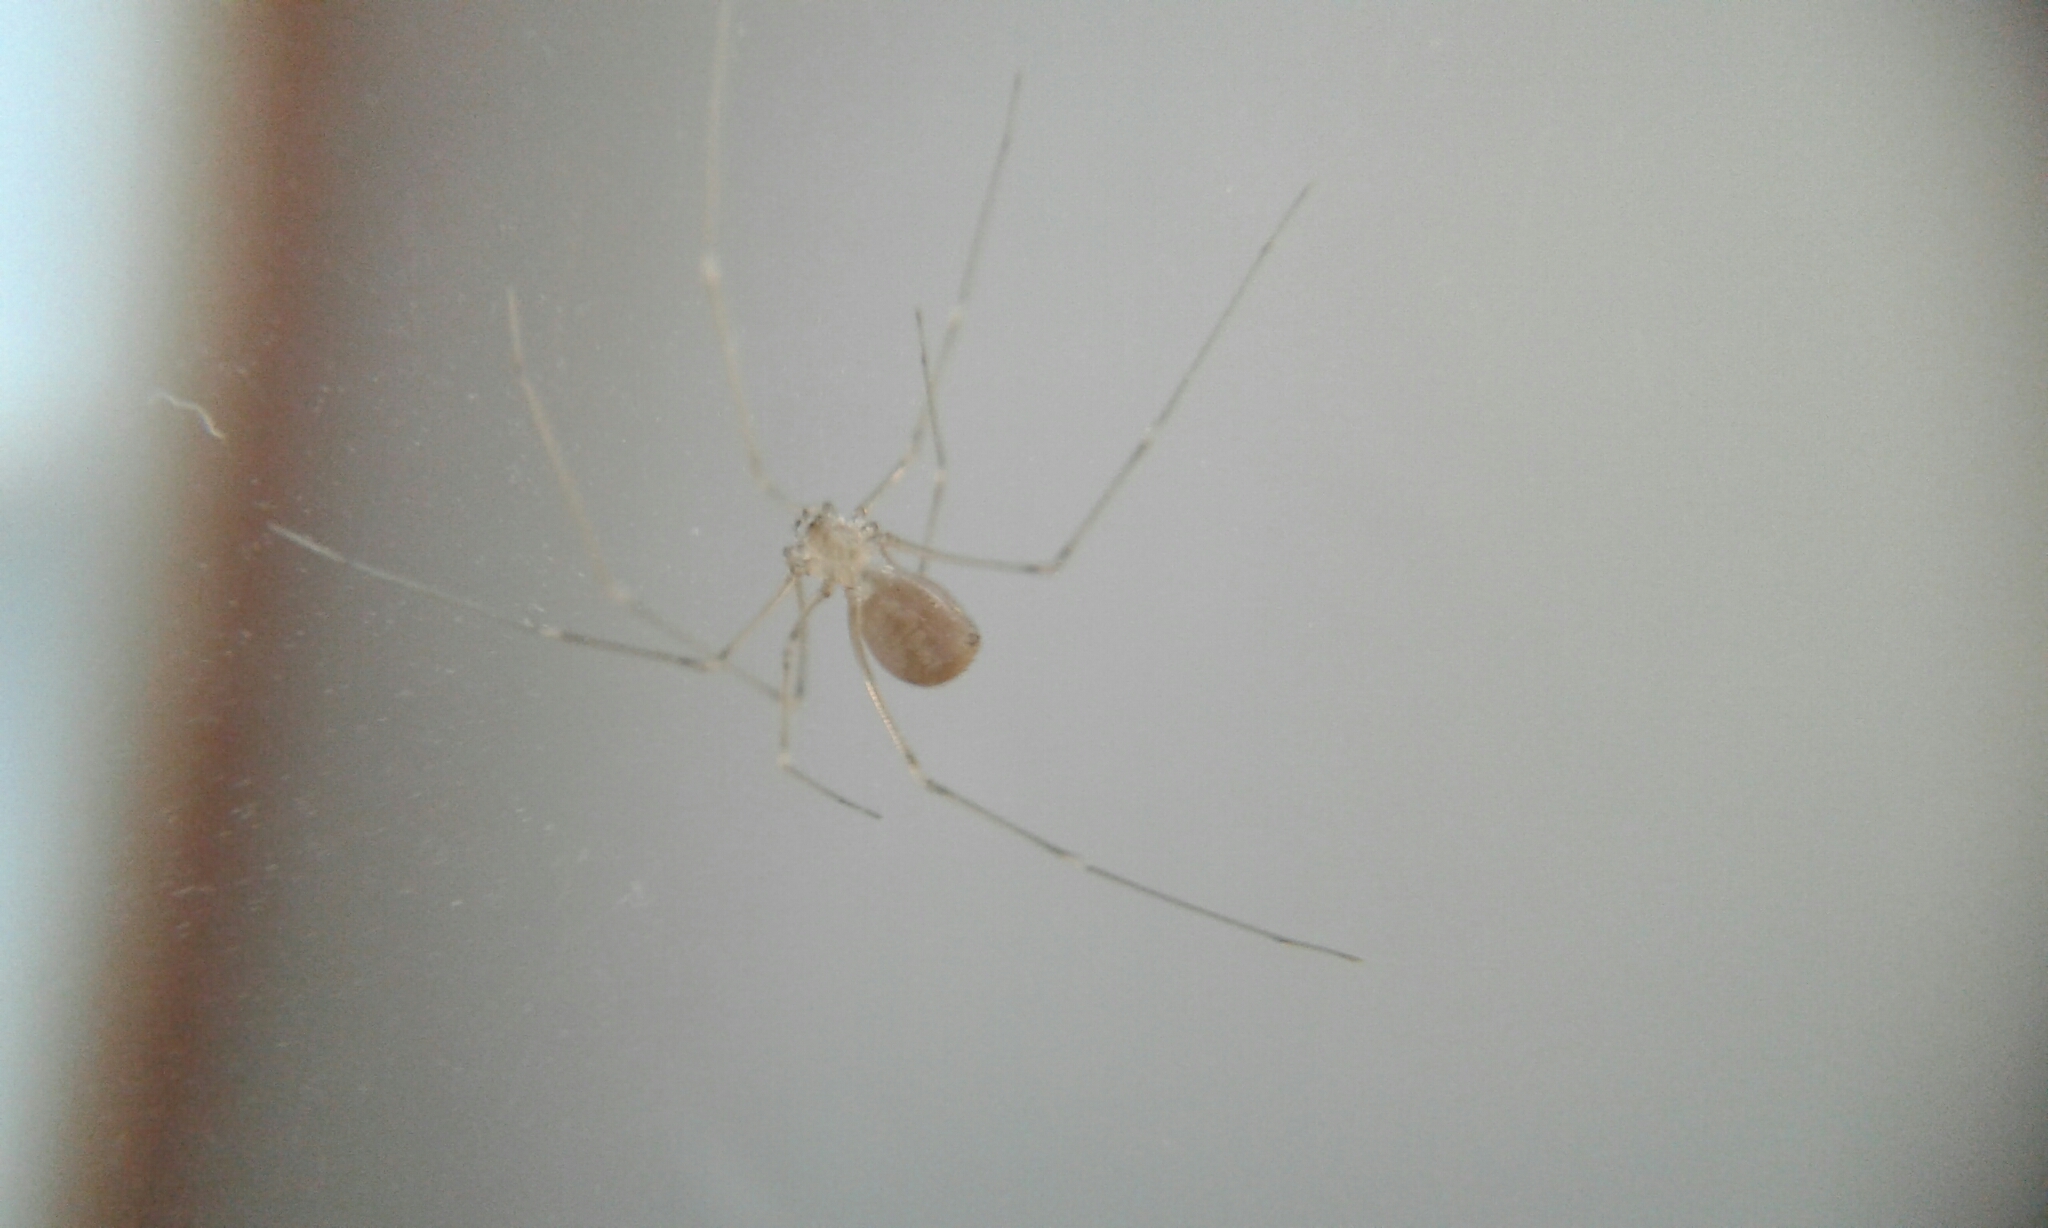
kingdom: Animalia
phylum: Arthropoda
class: Arachnida
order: Araneae
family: Pholcidae
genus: Pholcus
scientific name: Pholcus manueli
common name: Cellar spider
